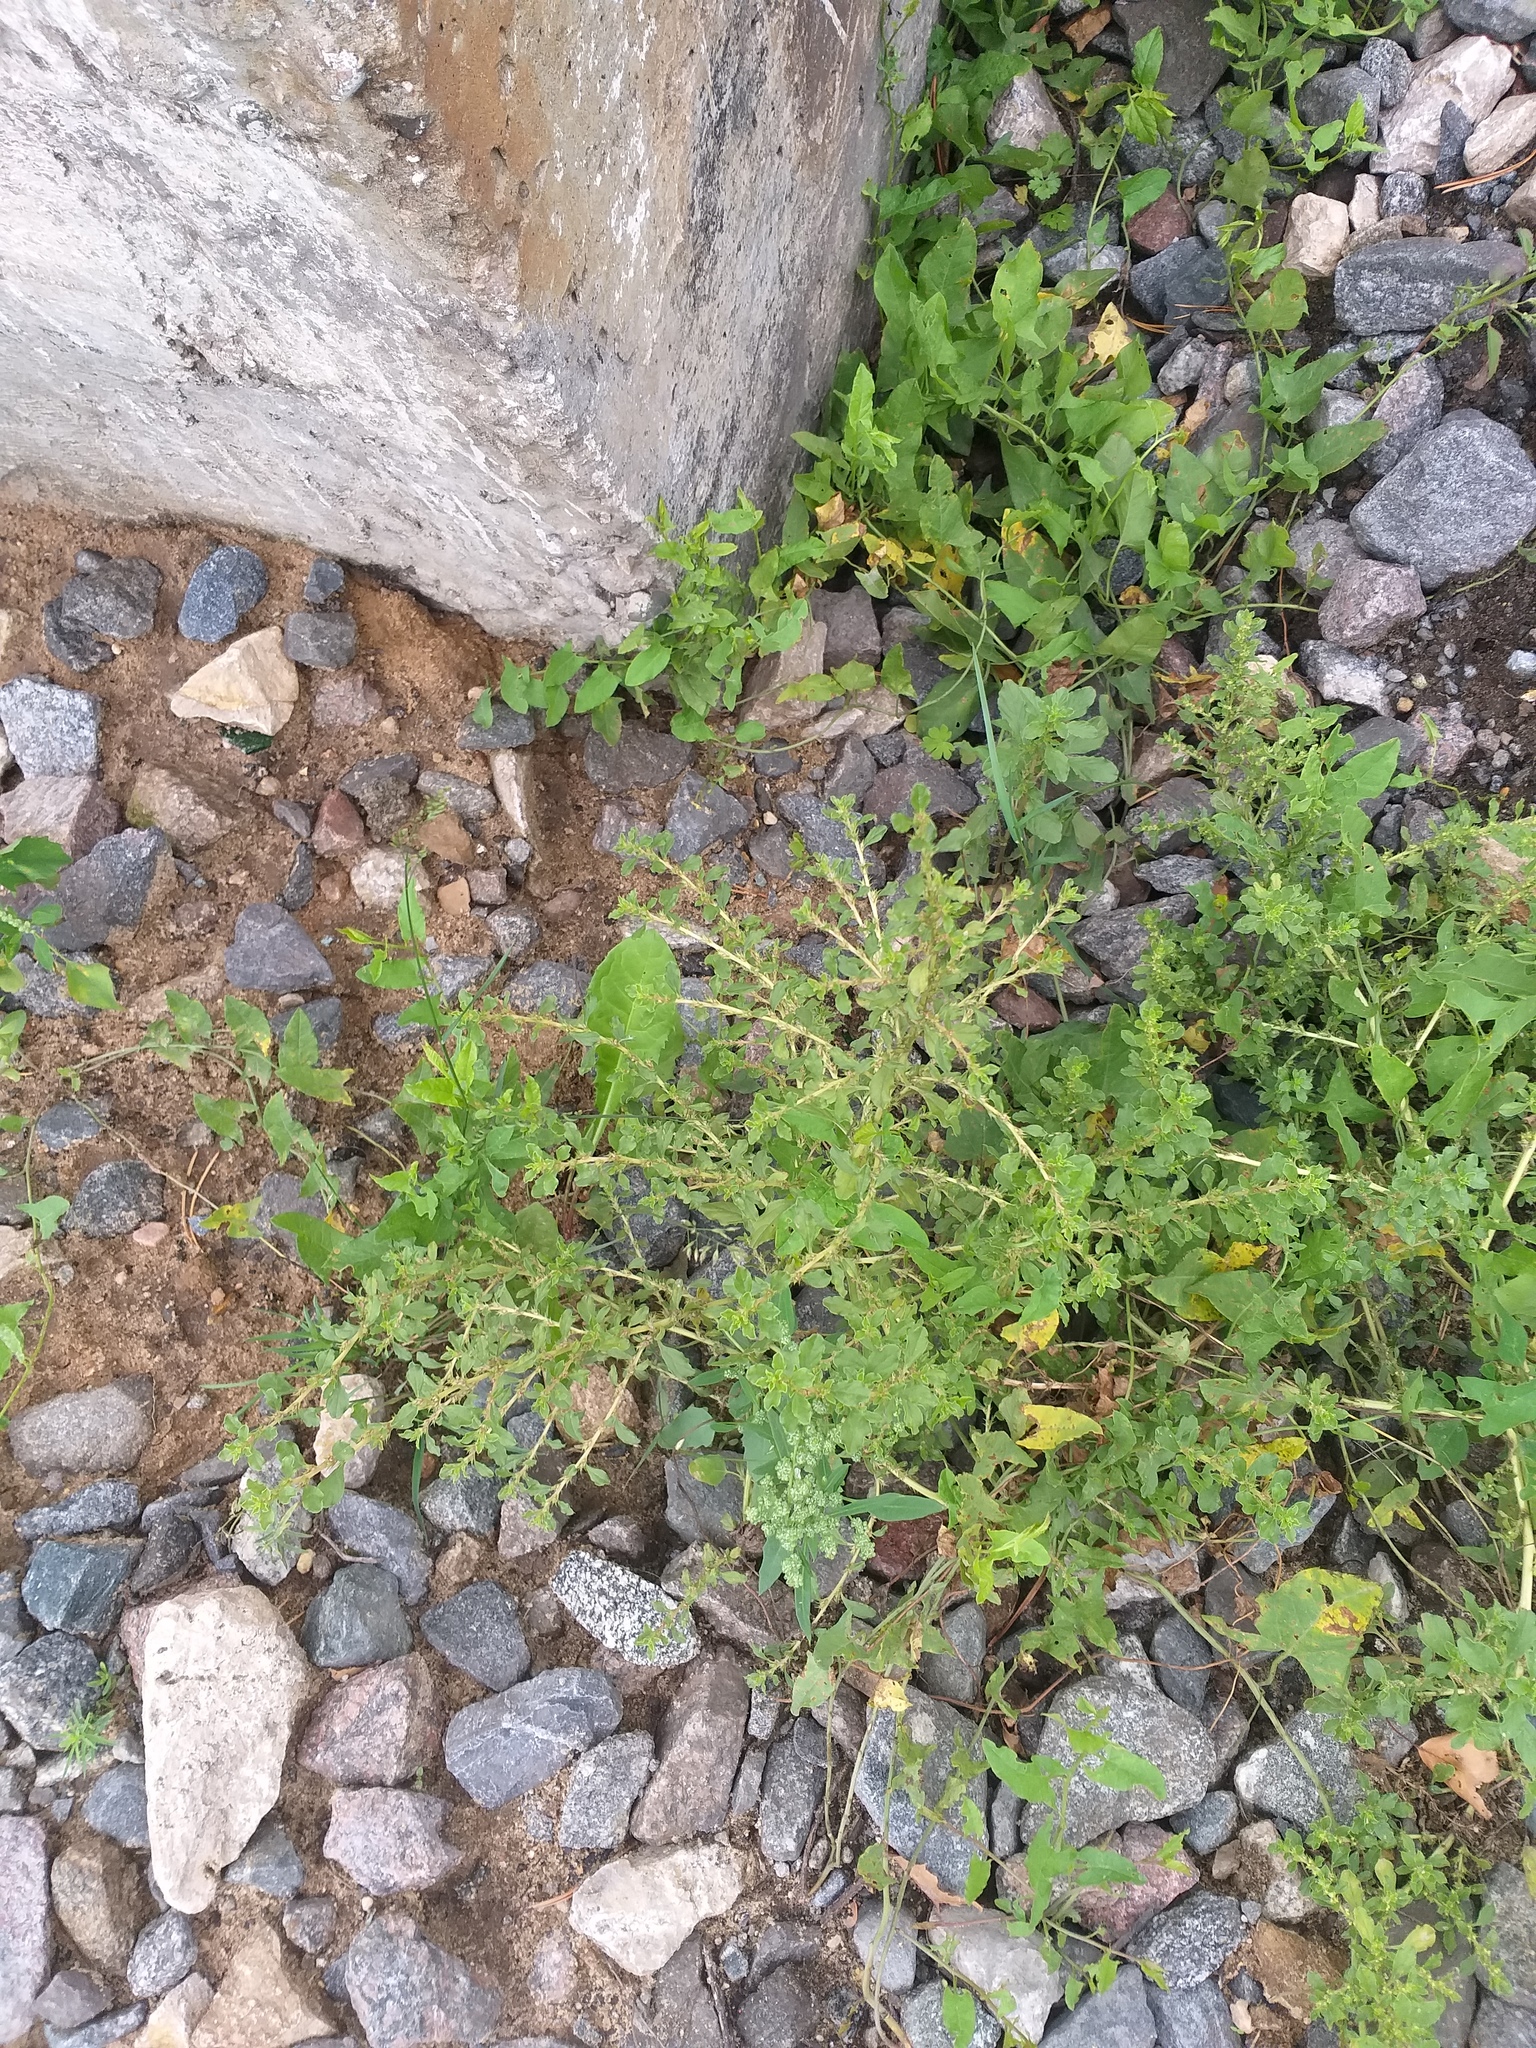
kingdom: Plantae
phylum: Tracheophyta
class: Magnoliopsida
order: Caryophyllales
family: Amaranthaceae
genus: Amaranthus
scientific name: Amaranthus albus
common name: White pigweed
